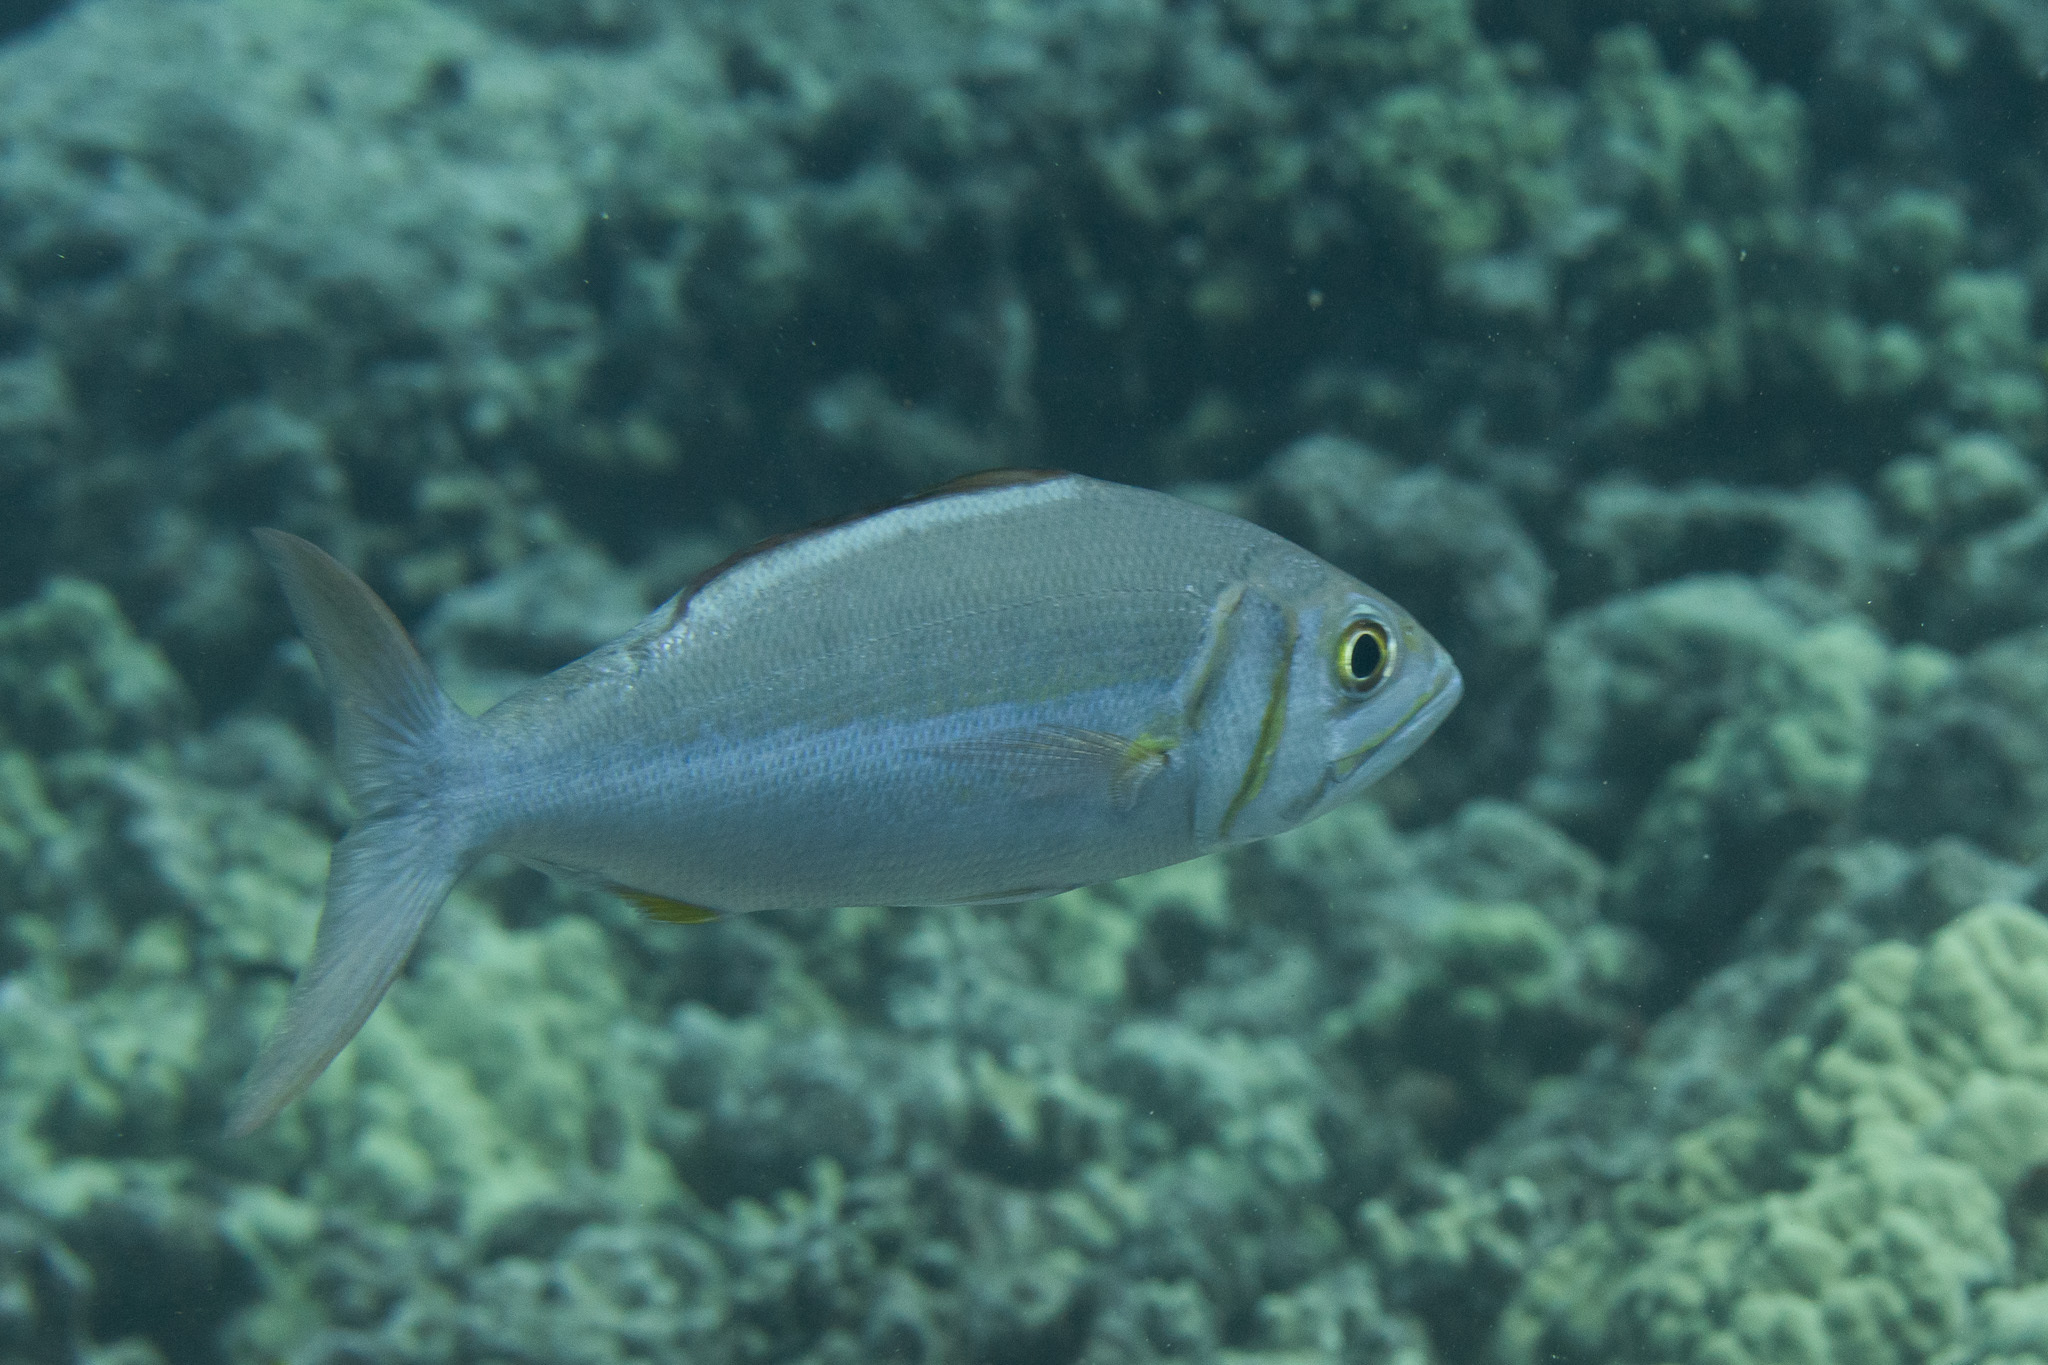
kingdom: Animalia
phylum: Chordata
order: Perciformes
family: Lutjanidae
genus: Aphareus
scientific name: Aphareus furca
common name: Smalltooth jobfish
